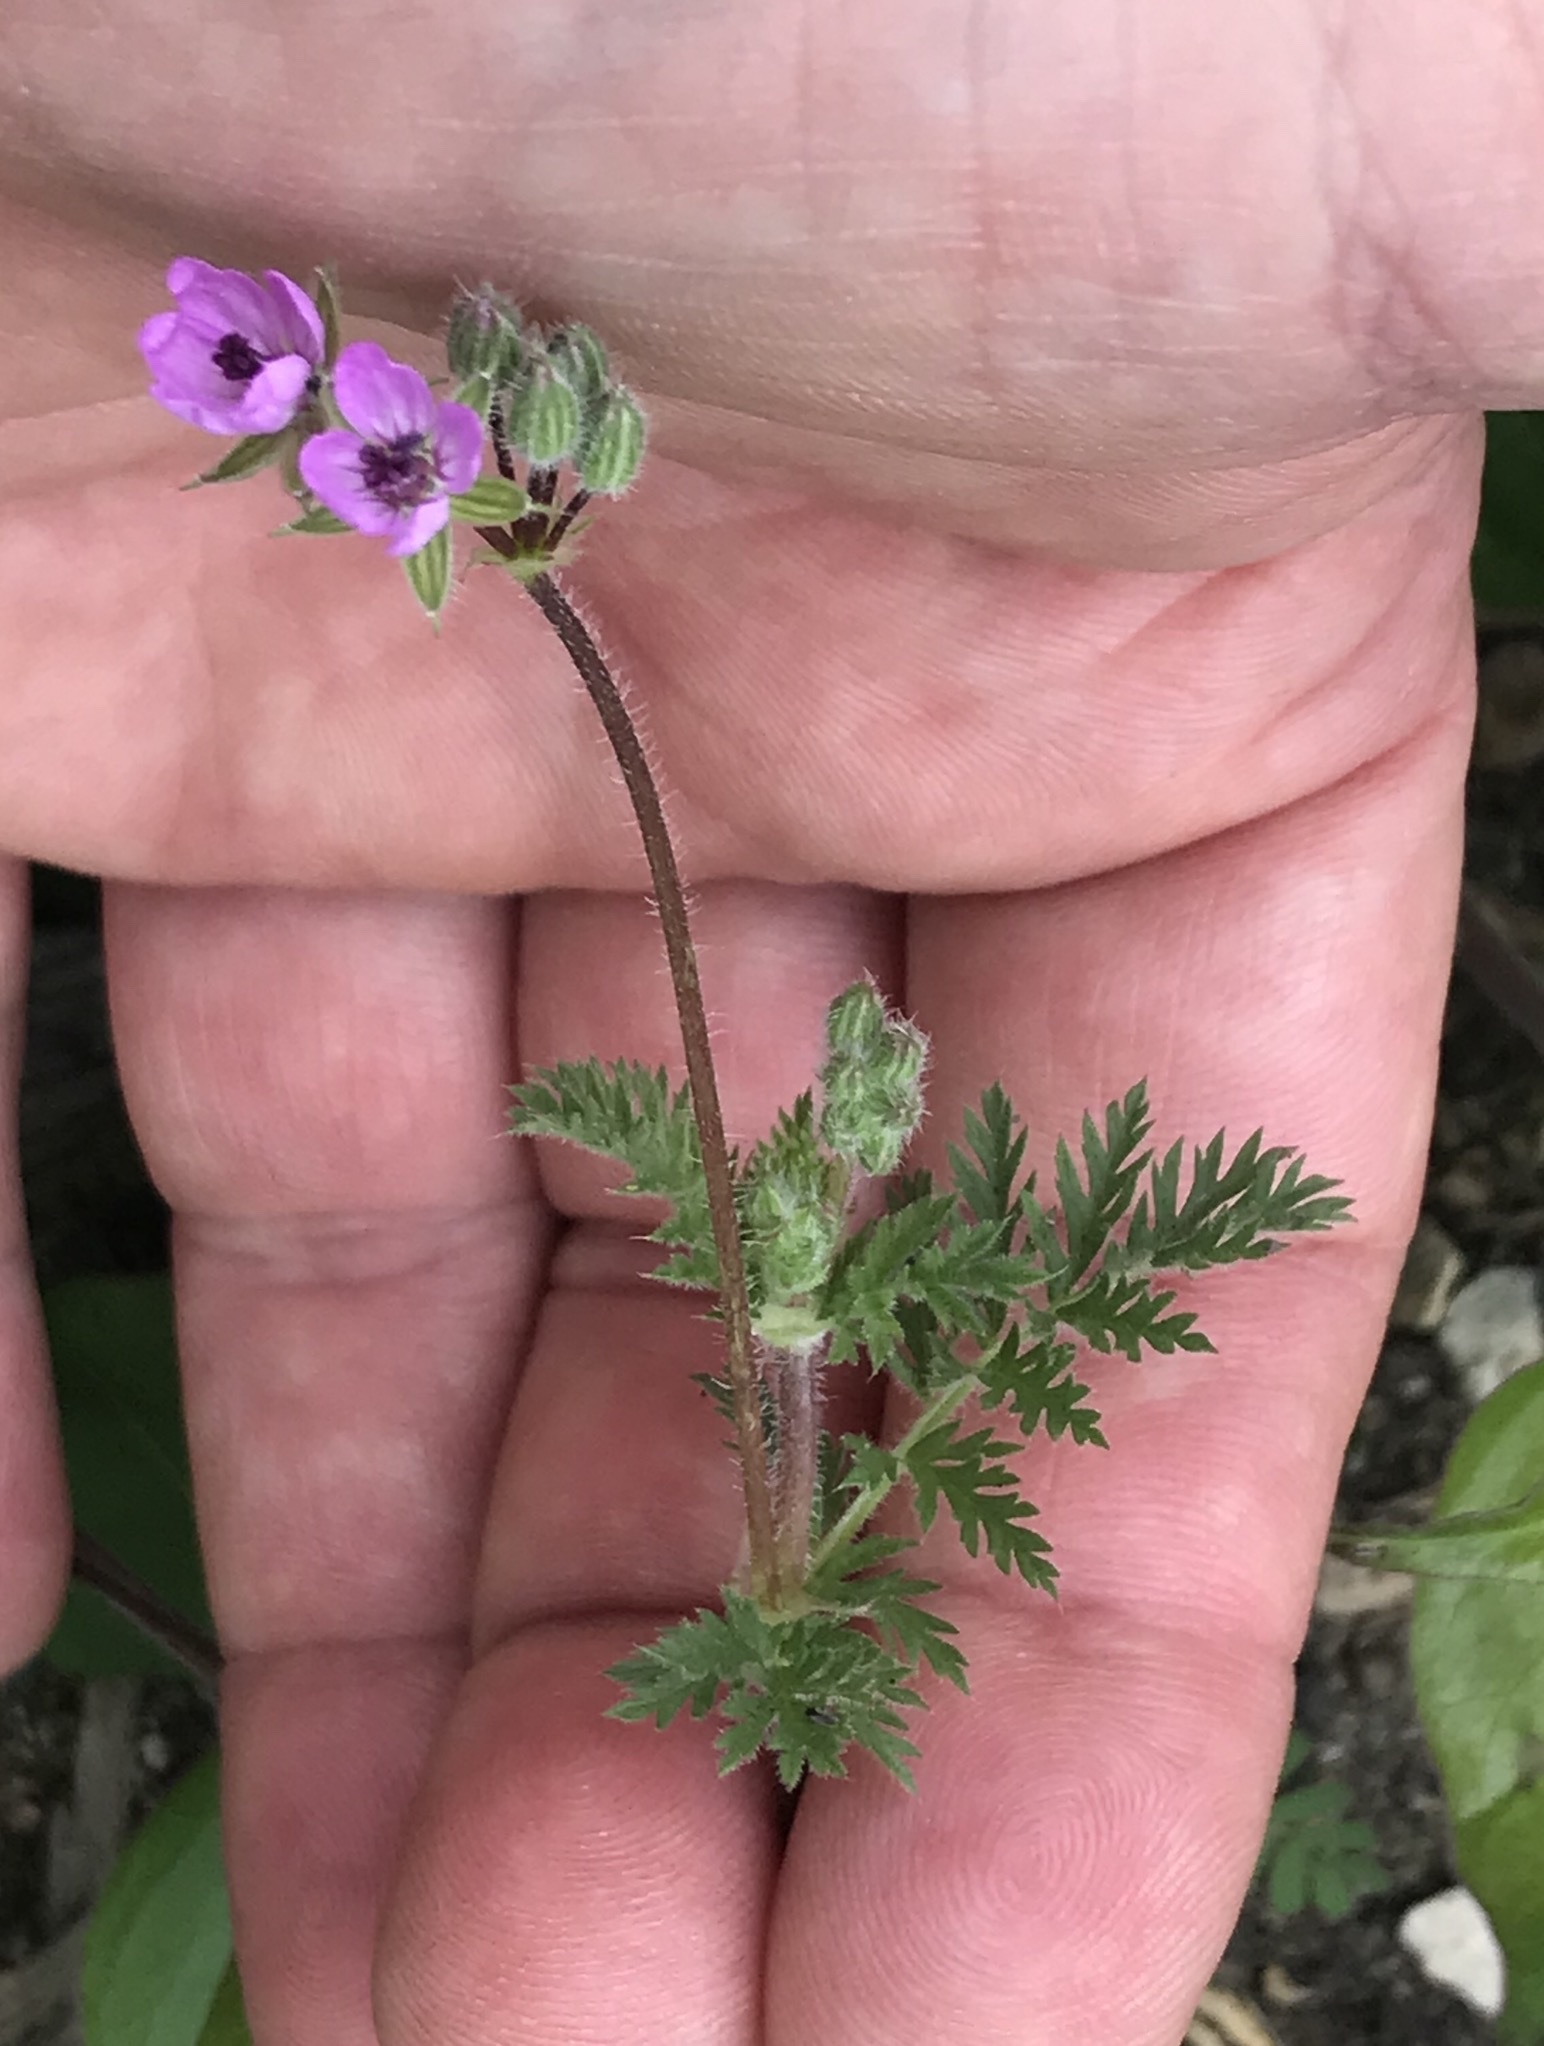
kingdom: Plantae
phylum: Tracheophyta
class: Magnoliopsida
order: Geraniales
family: Geraniaceae
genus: Erodium
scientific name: Erodium cicutarium
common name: Common stork's-bill
